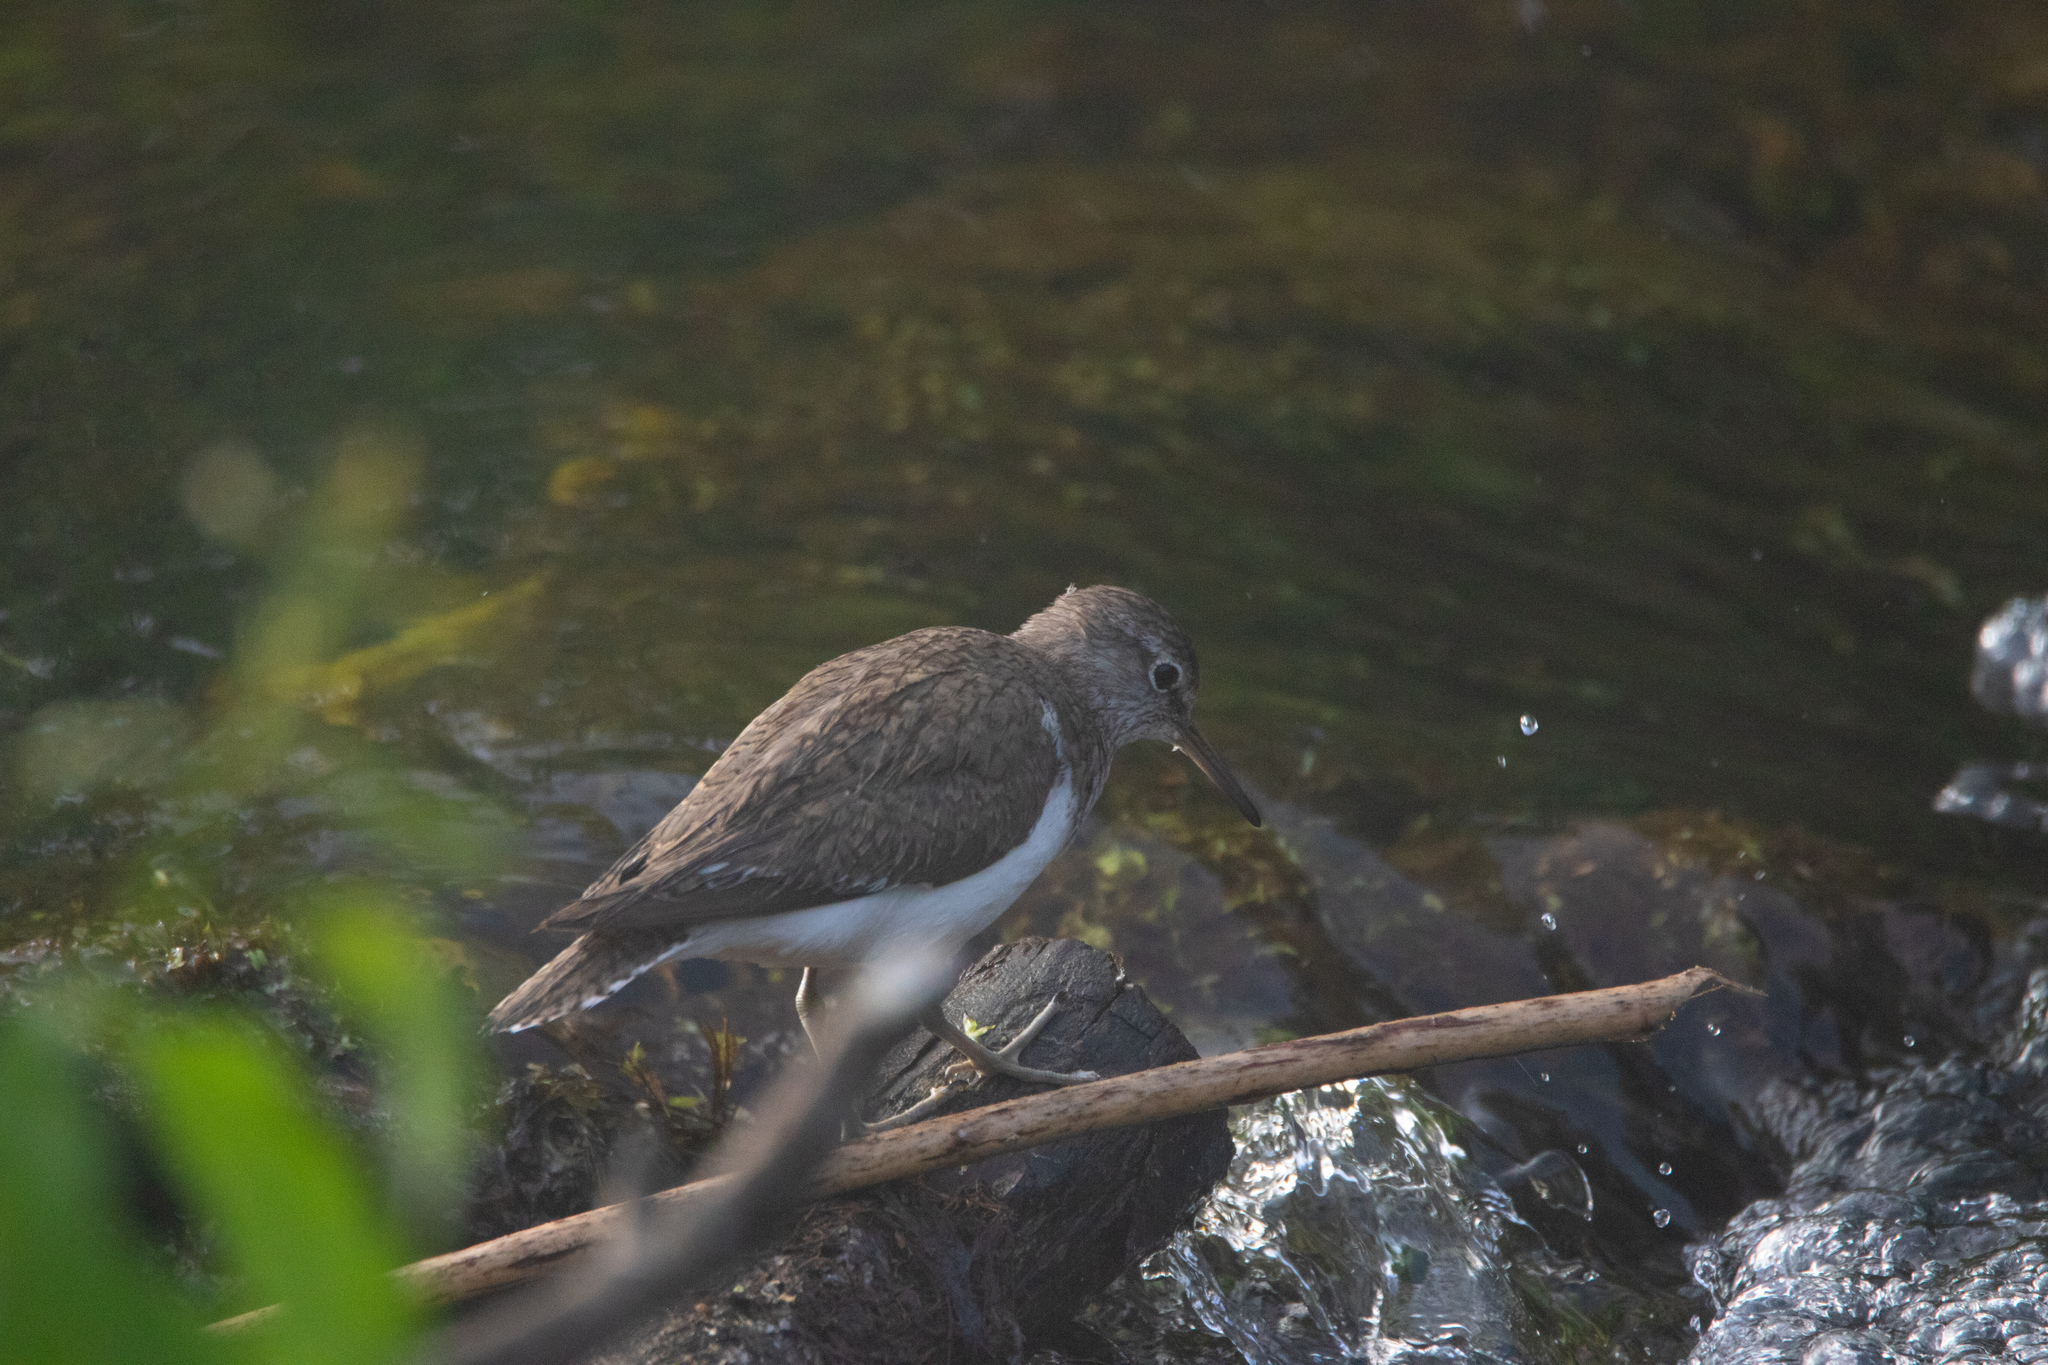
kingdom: Animalia
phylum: Chordata
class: Aves
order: Charadriiformes
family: Scolopacidae
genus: Actitis
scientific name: Actitis hypoleucos
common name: Common sandpiper
